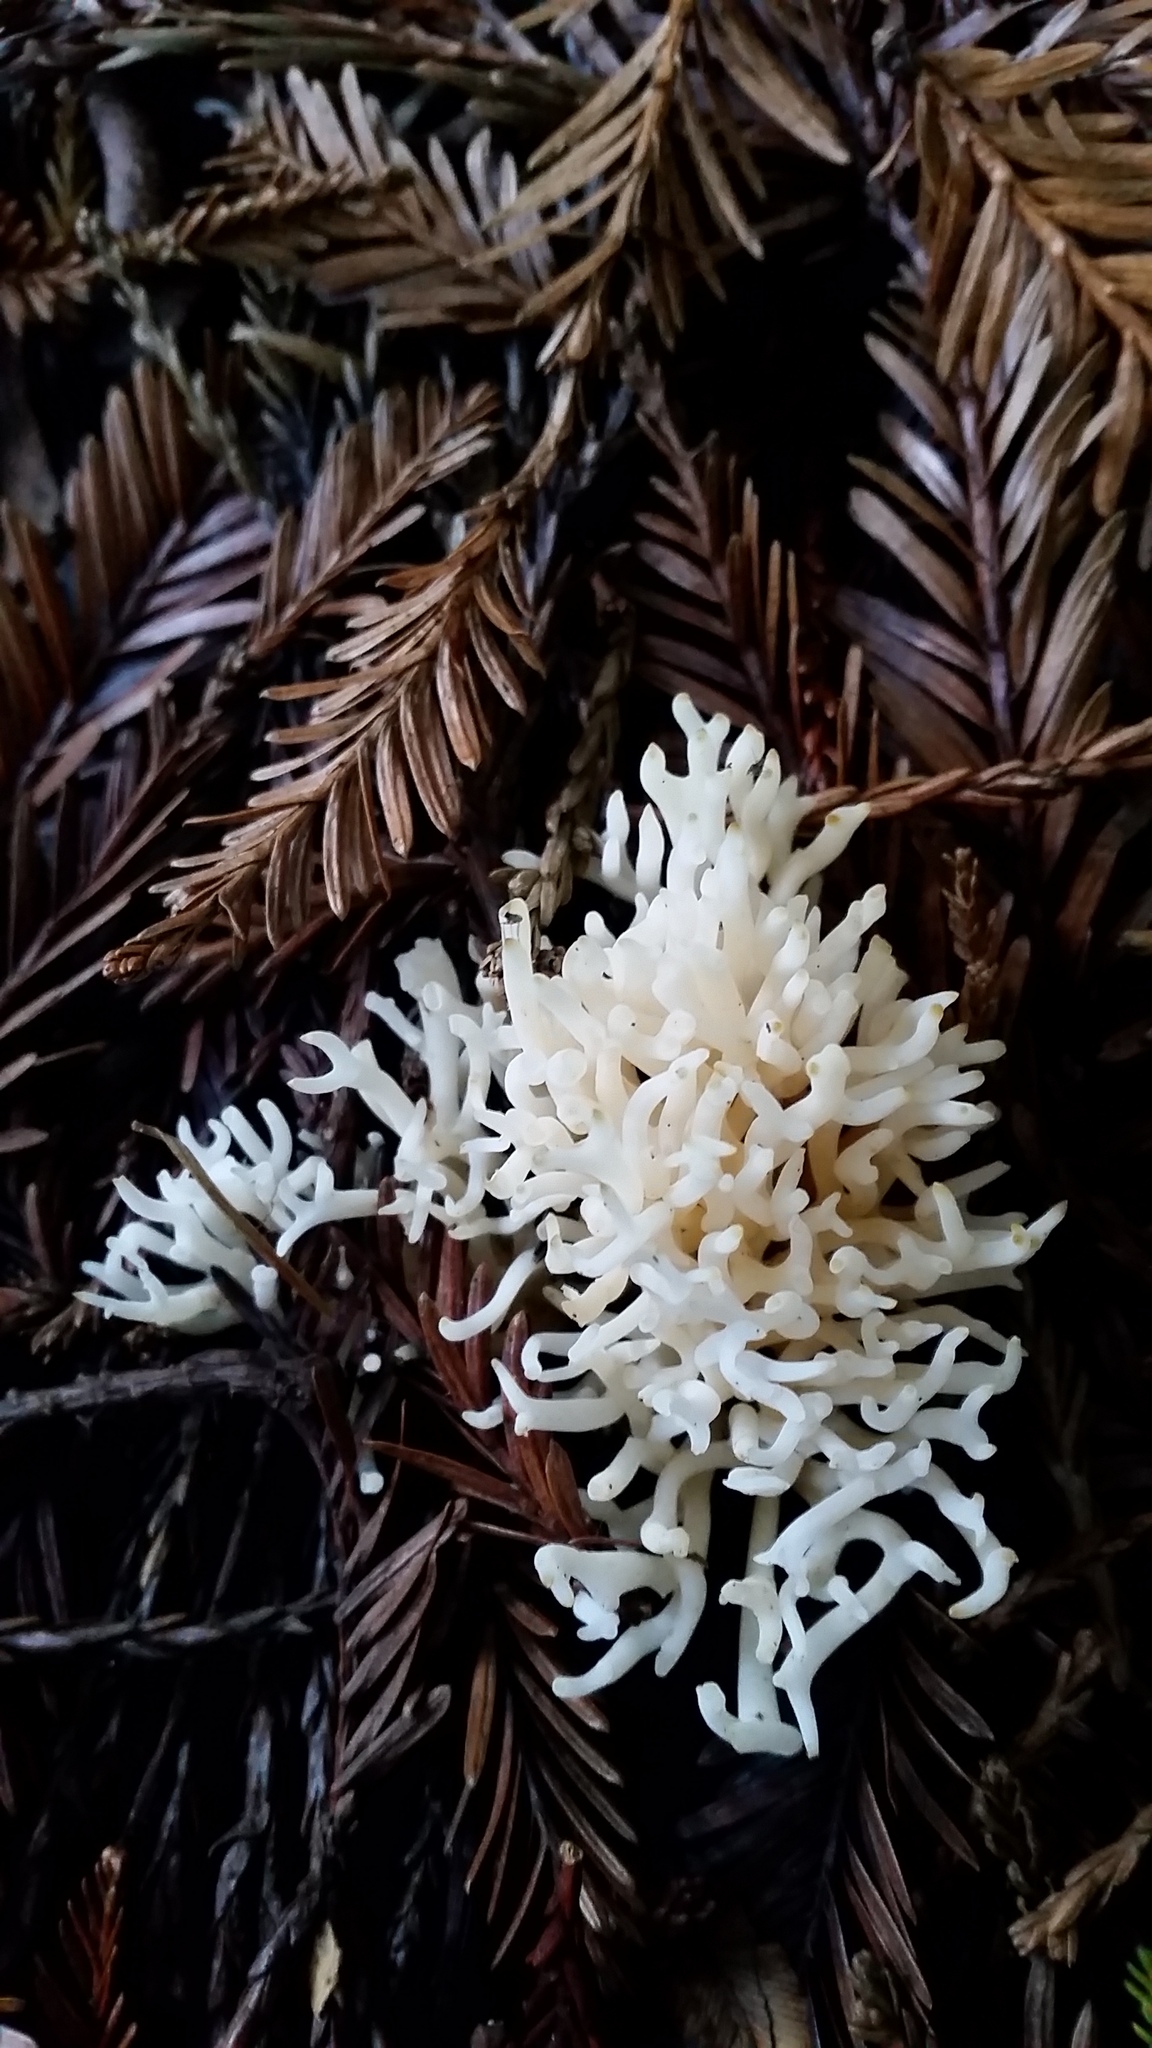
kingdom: Fungi
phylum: Basidiomycota
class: Agaricomycetes
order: Agaricales
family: Clavariaceae
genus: Ramariopsis
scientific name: Ramariopsis kunzei
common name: Ivory coral
